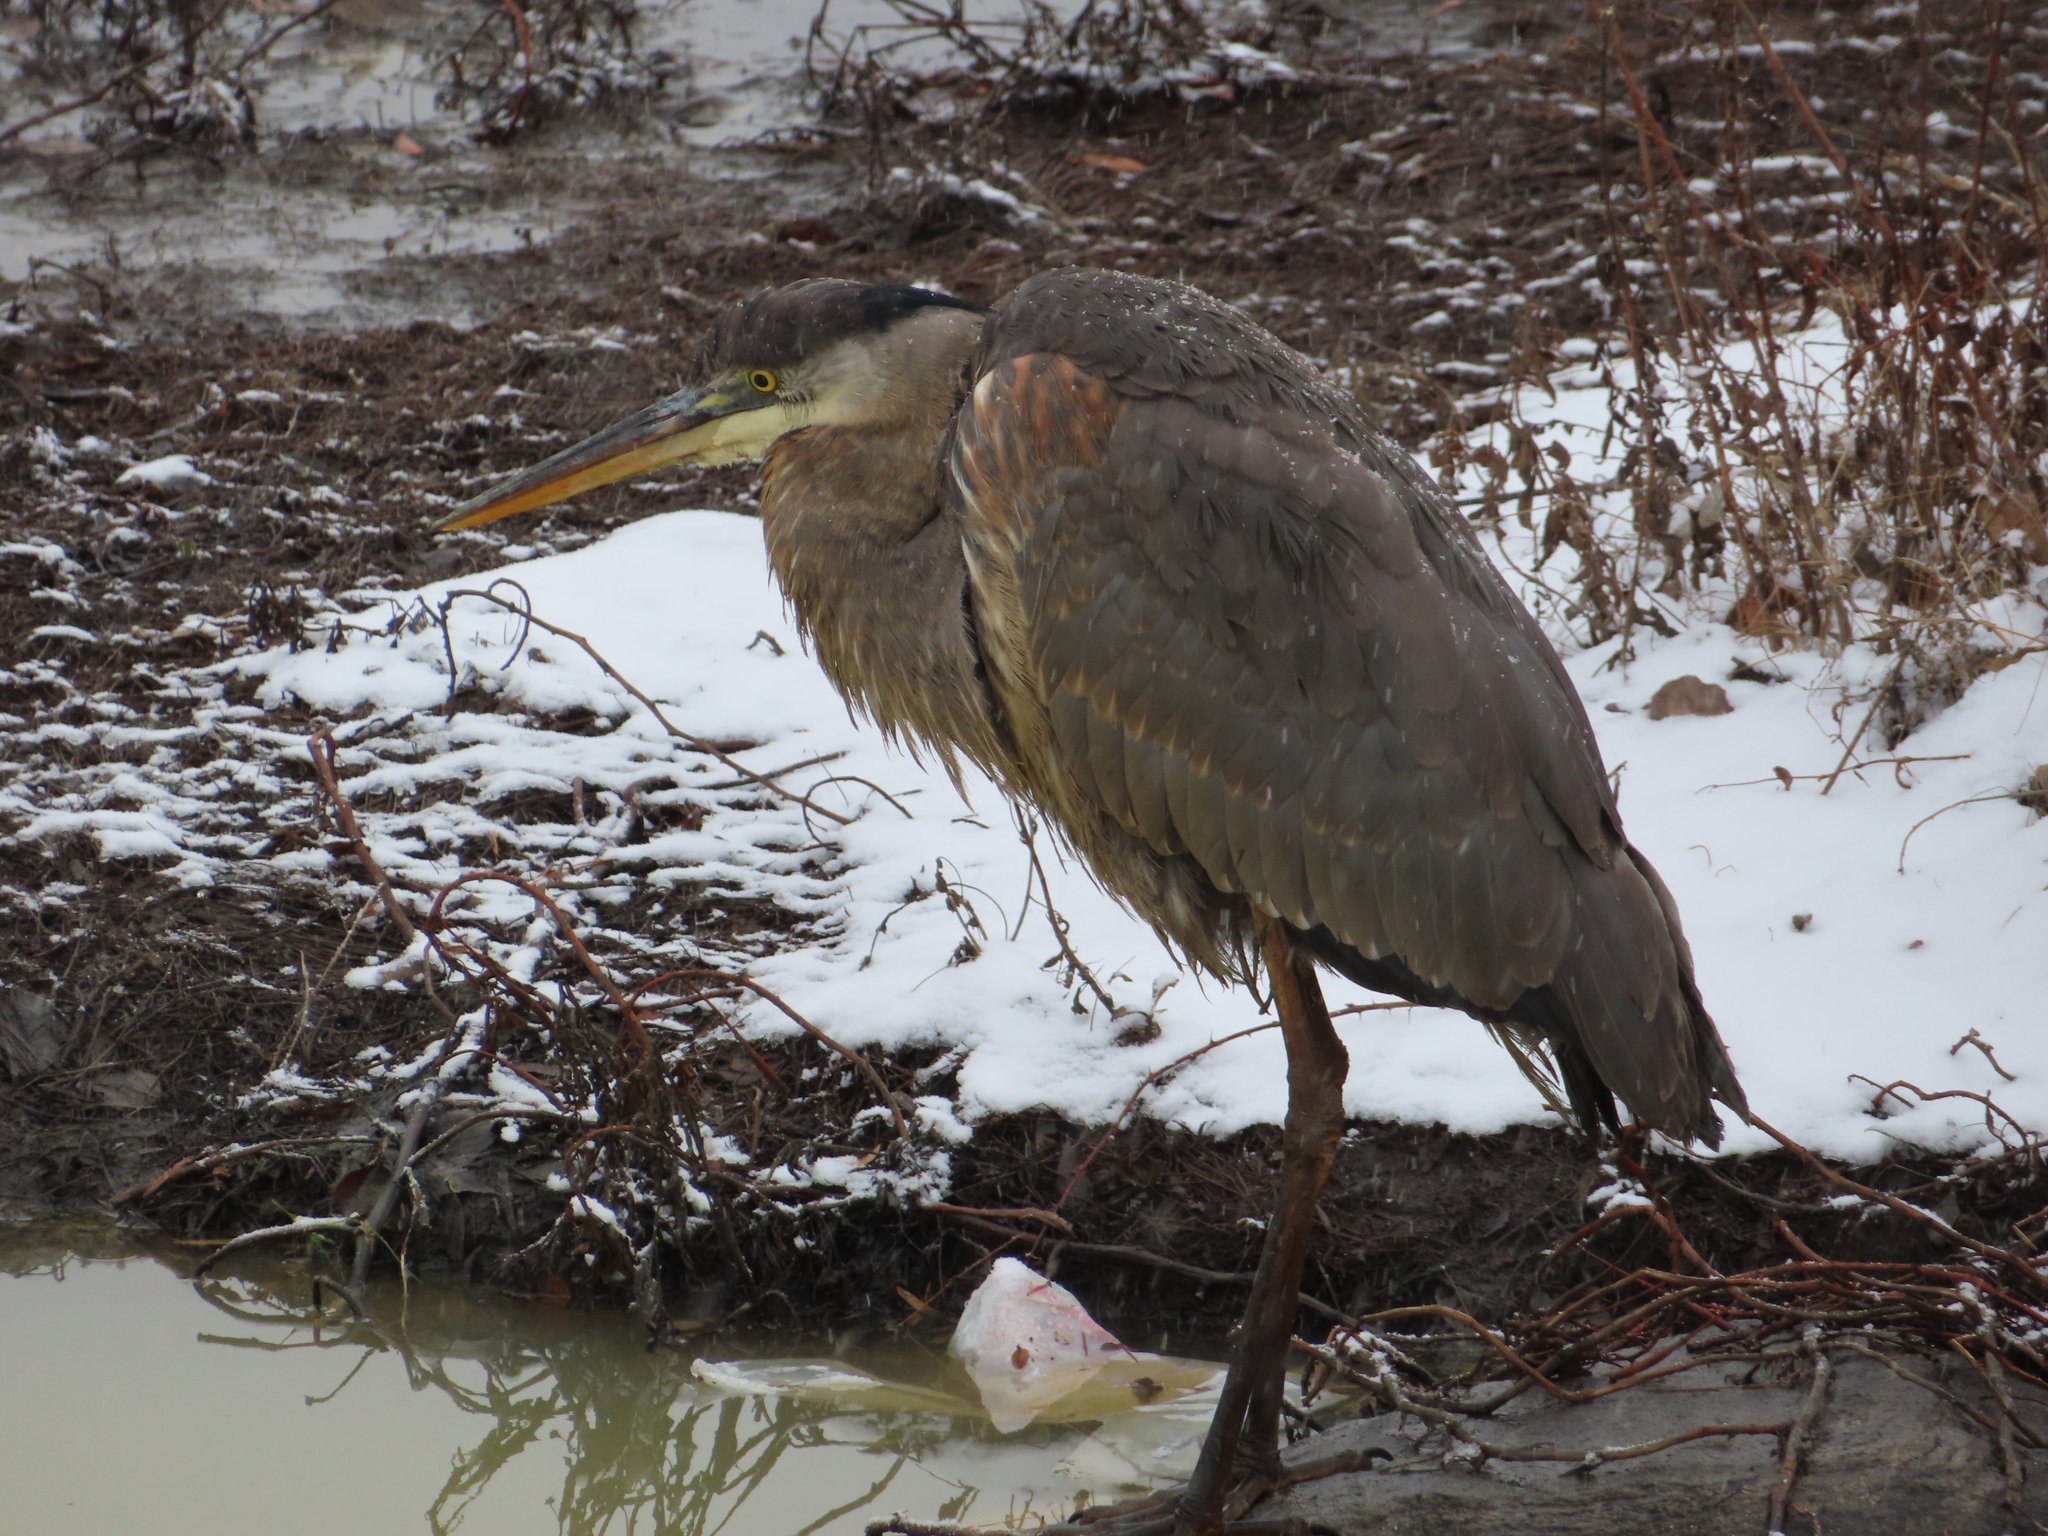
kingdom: Animalia
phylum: Chordata
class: Aves
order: Pelecaniformes
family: Ardeidae
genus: Ardea
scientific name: Ardea herodias
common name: Great blue heron
